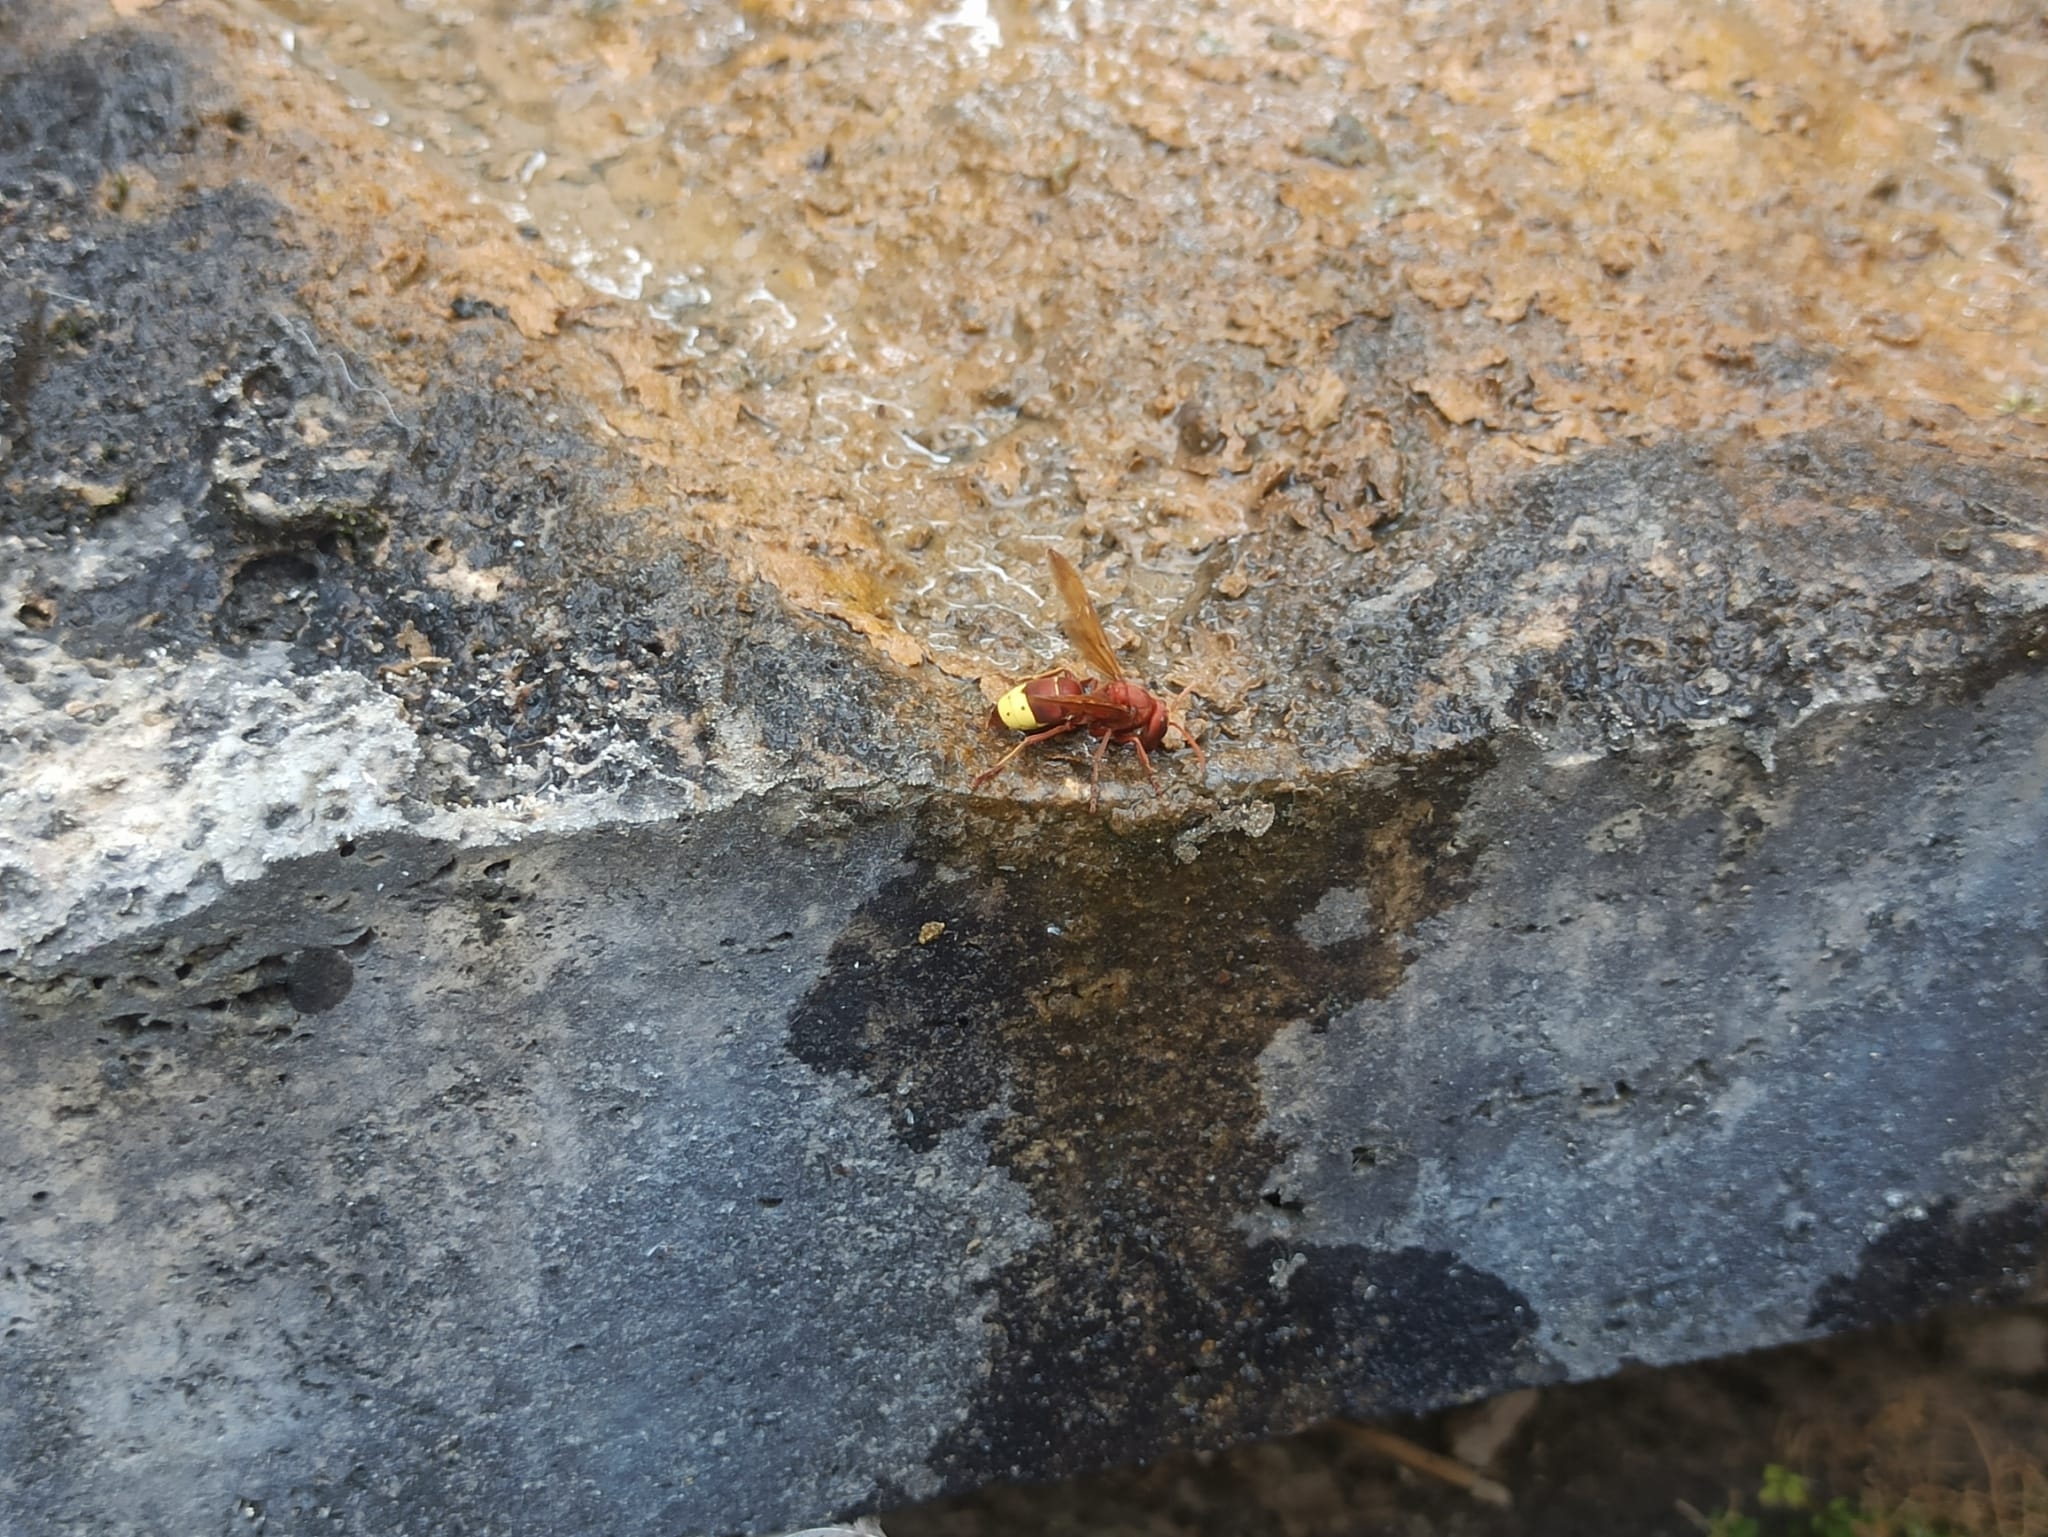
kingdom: Animalia
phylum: Arthropoda
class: Insecta
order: Hymenoptera
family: Vespidae
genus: Vespa
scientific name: Vespa orientalis
